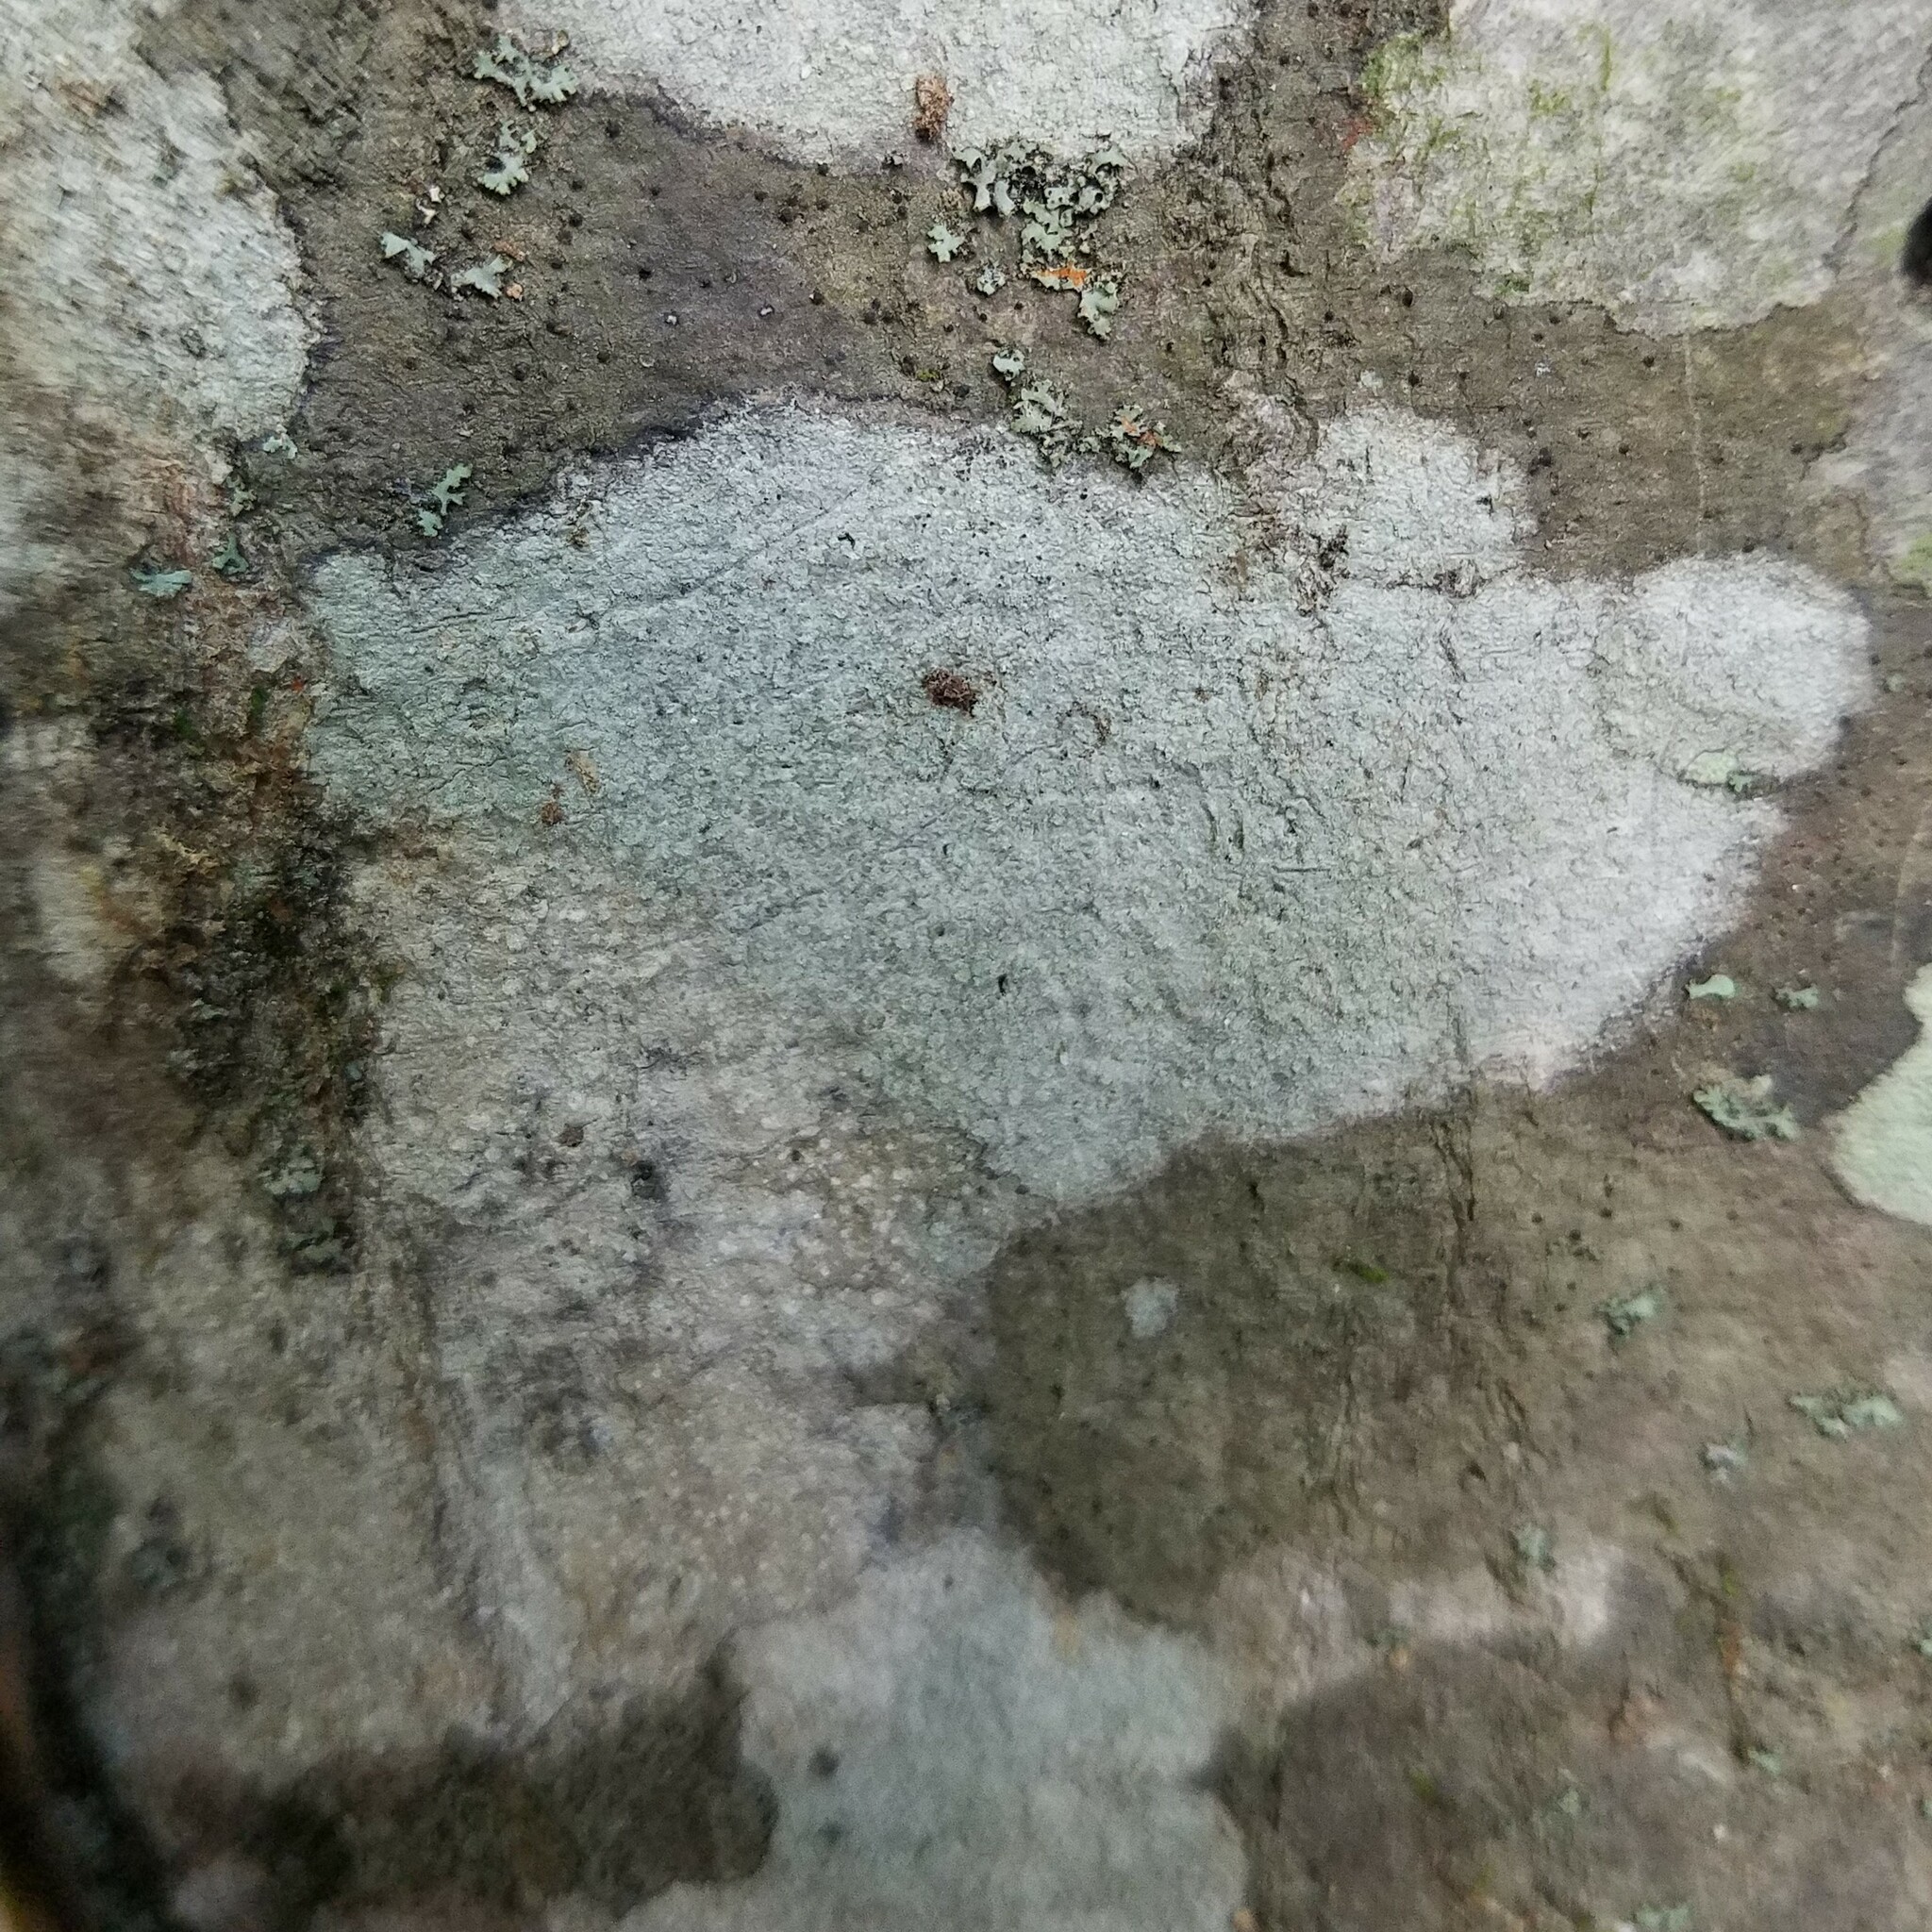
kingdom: Fungi
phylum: Ascomycota
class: Lecanoromycetes
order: Ostropales
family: Graphidaceae
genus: Nadvornikia
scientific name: Nadvornikia sorediata
